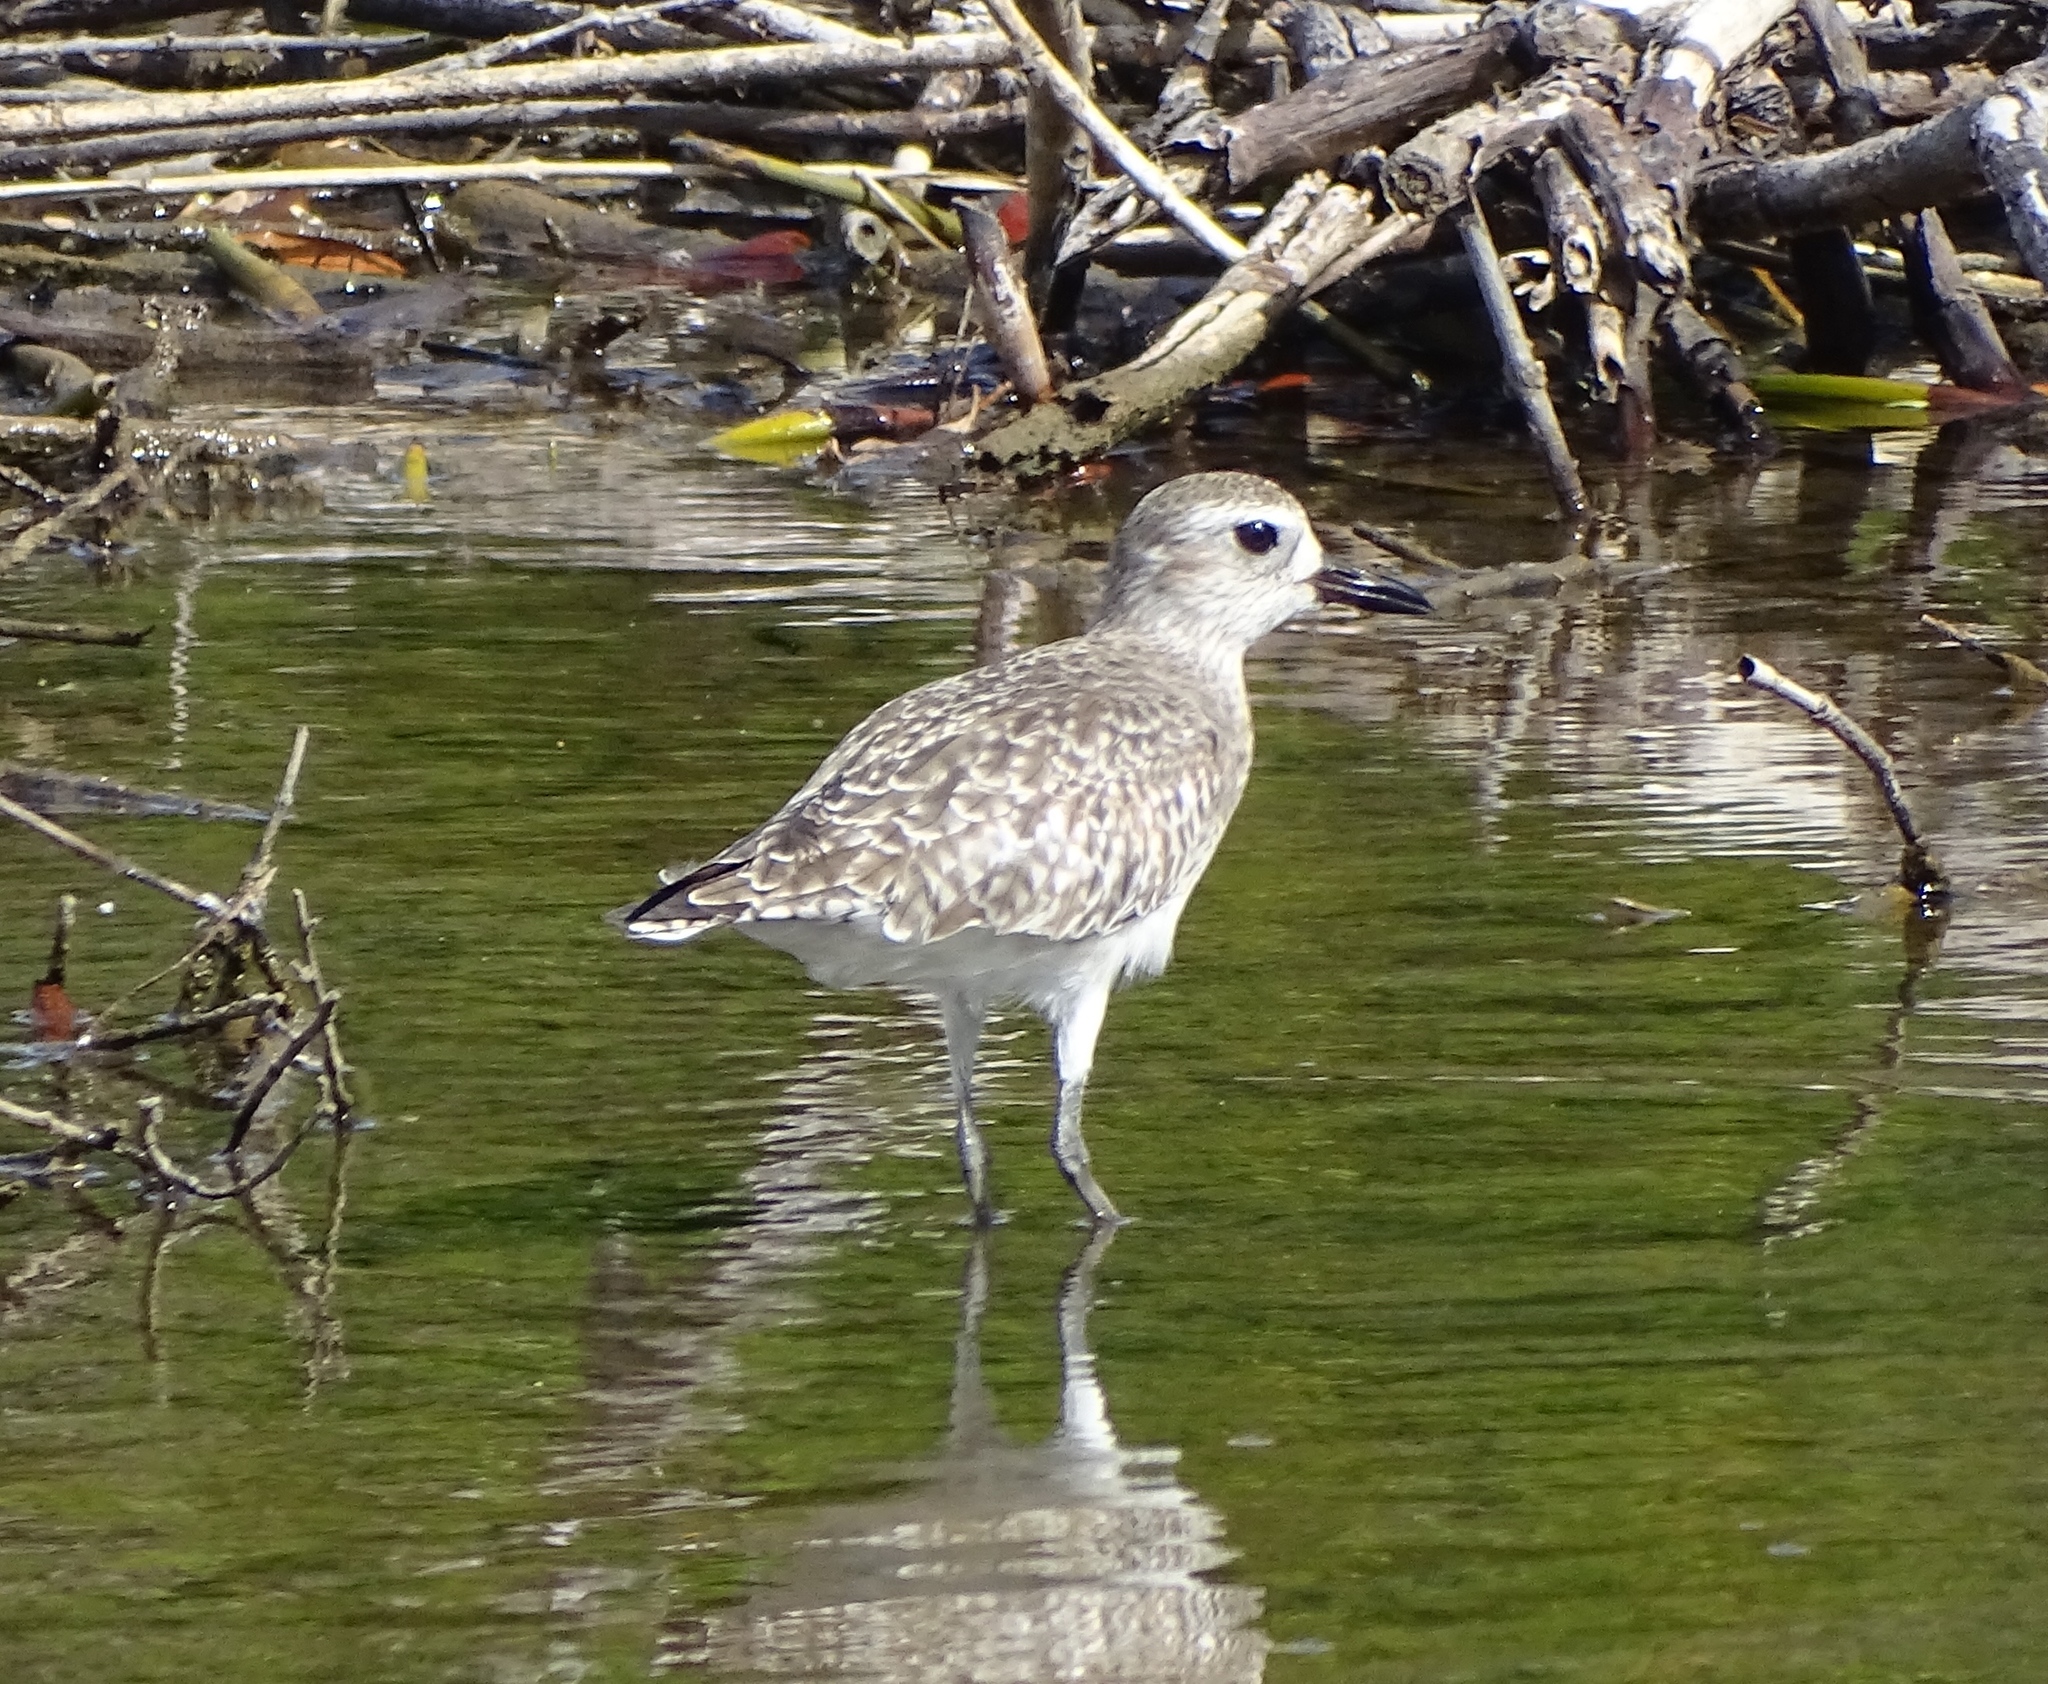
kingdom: Animalia
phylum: Chordata
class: Aves
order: Charadriiformes
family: Charadriidae
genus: Pluvialis
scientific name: Pluvialis squatarola
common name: Grey plover
